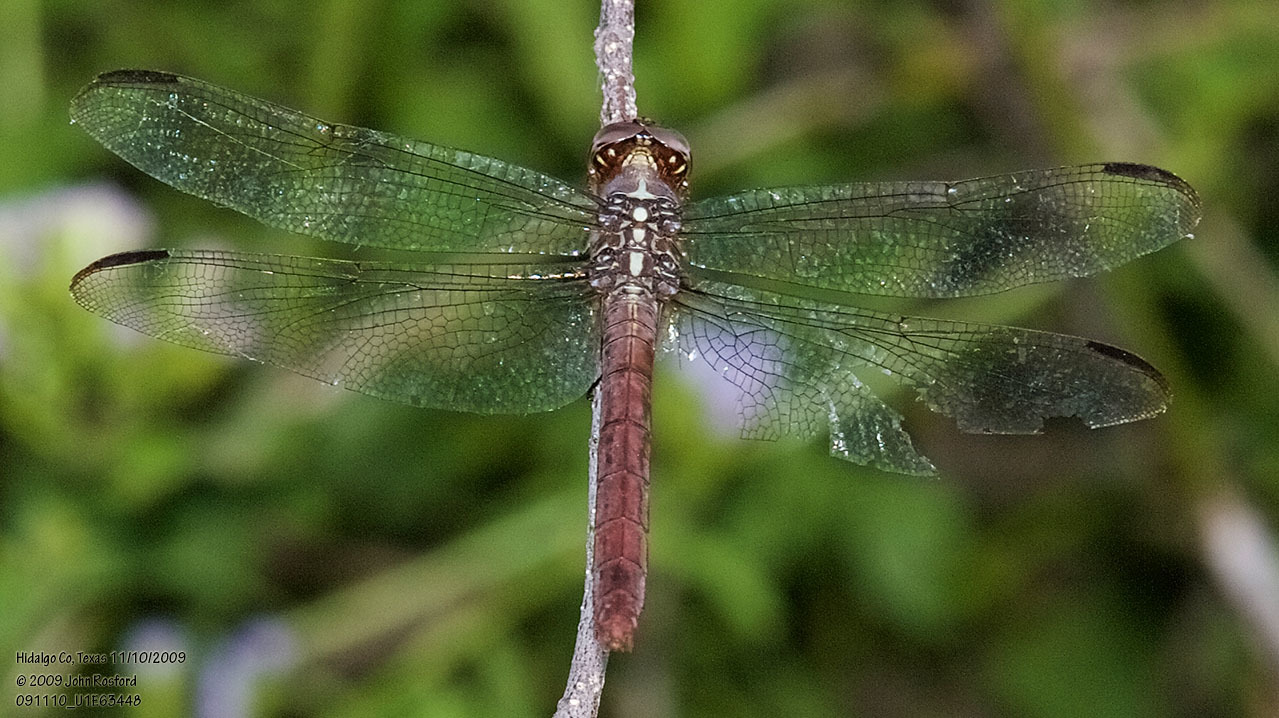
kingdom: Animalia
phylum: Arthropoda
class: Insecta
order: Odonata
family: Libellulidae
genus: Orthemis
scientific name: Orthemis ferruginea
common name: Roseate skimmer
